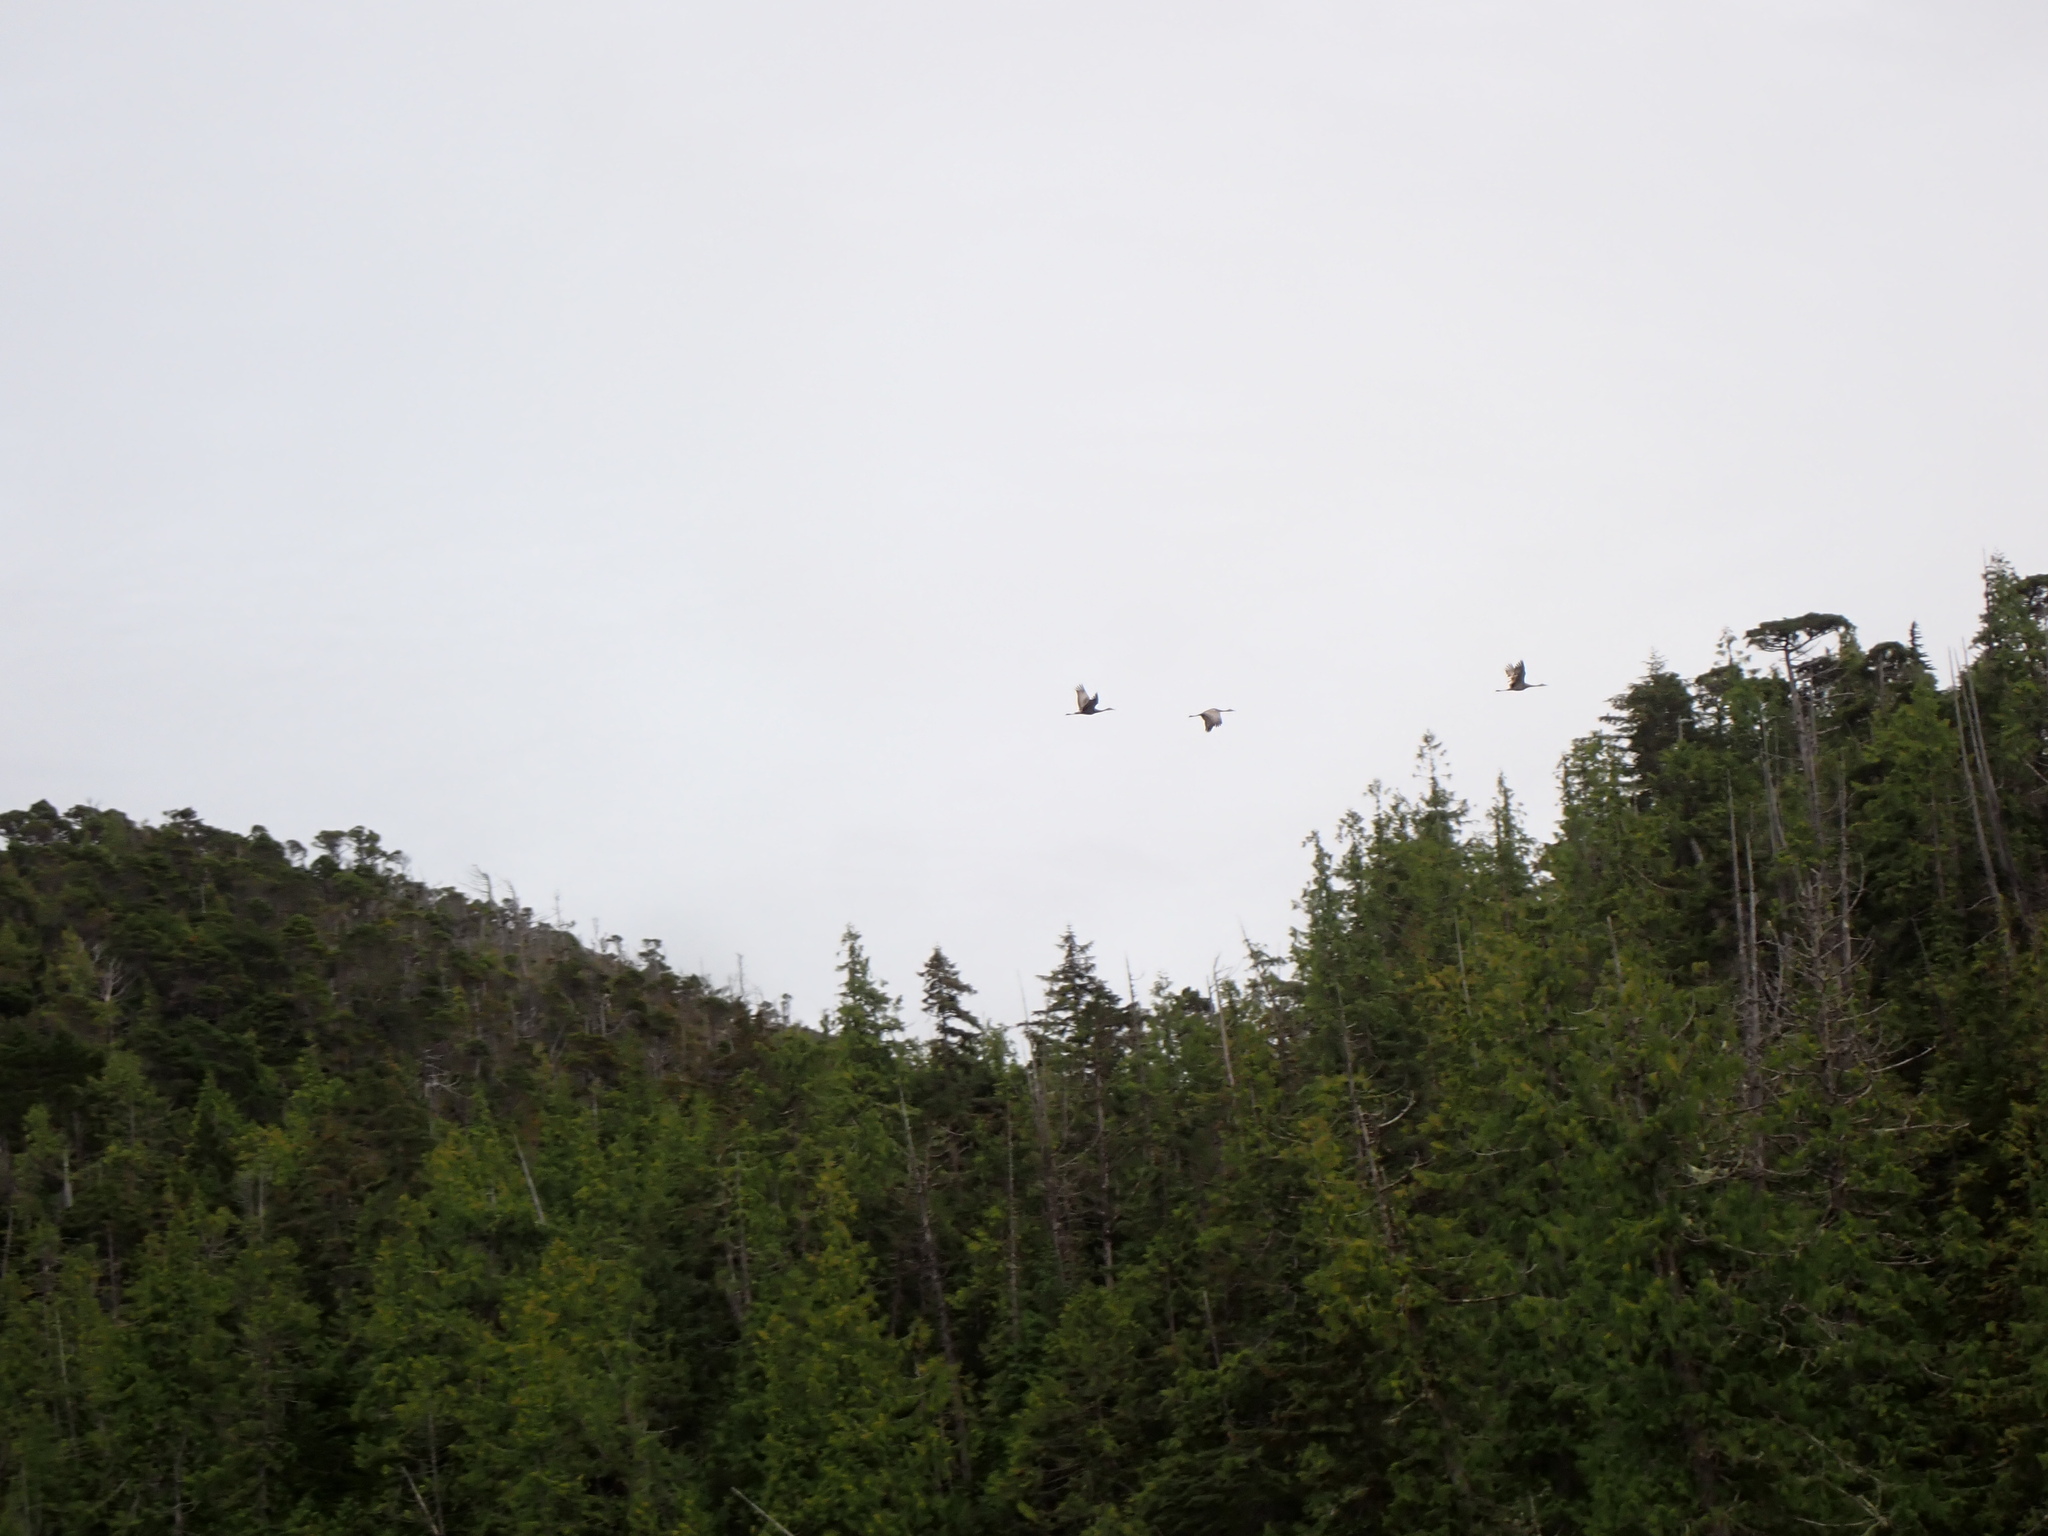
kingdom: Animalia
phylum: Chordata
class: Aves
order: Gruiformes
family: Gruidae
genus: Grus
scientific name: Grus canadensis
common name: Sandhill crane
